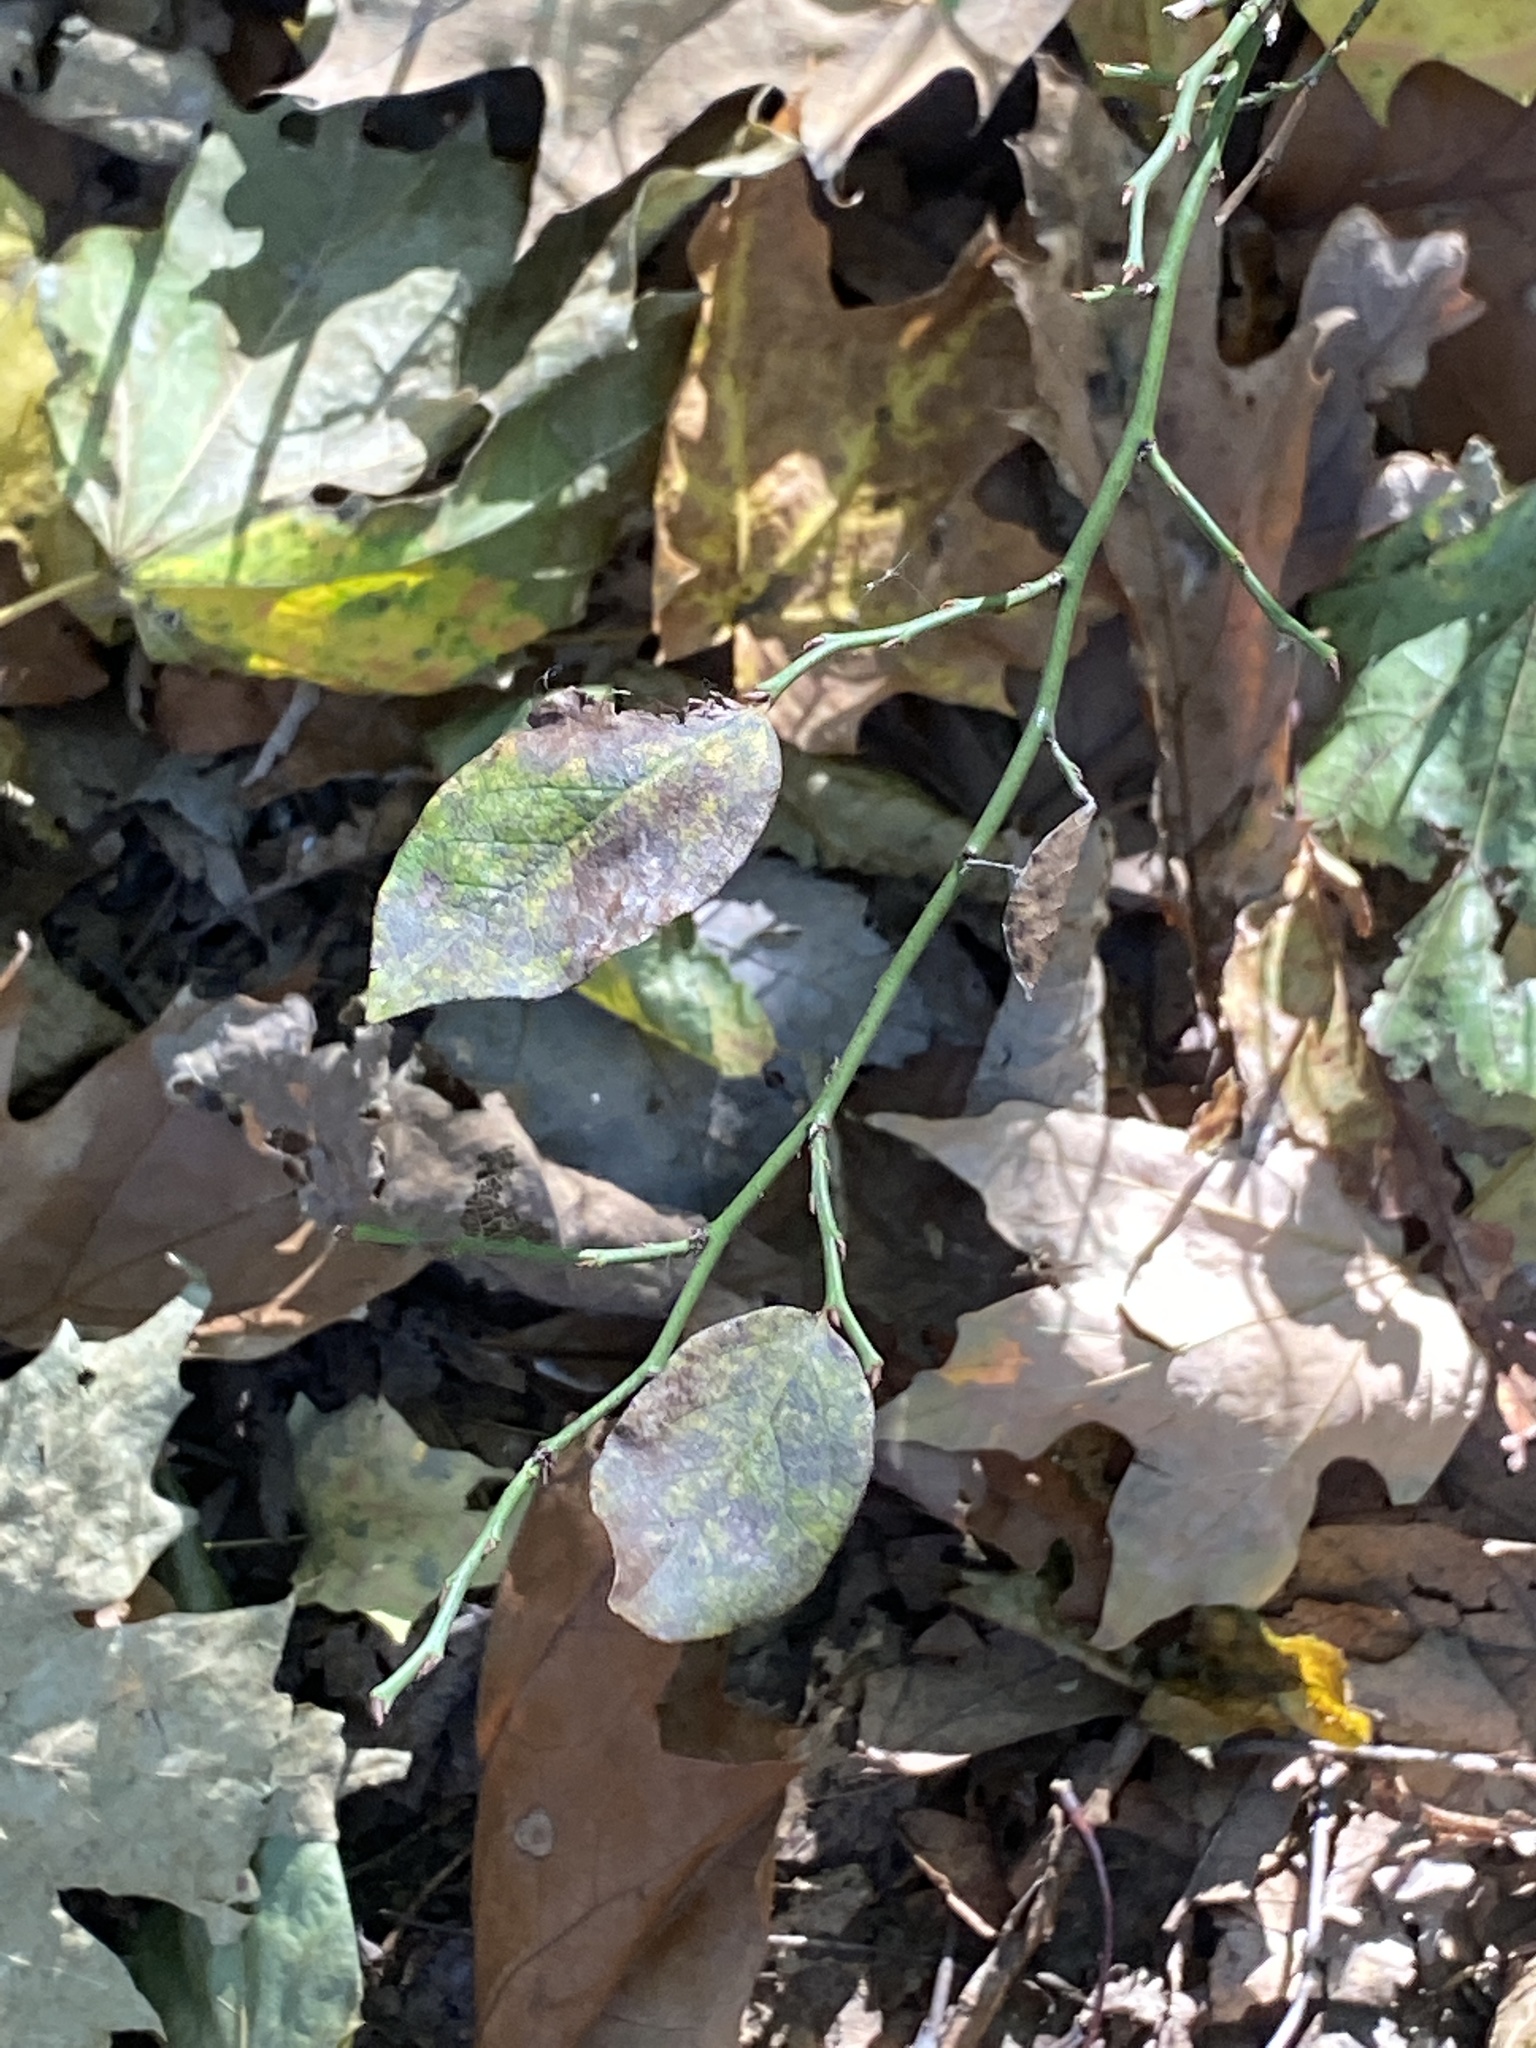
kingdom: Plantae
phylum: Tracheophyta
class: Magnoliopsida
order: Ericales
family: Ericaceae
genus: Vaccinium
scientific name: Vaccinium pallidum
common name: Blue ridge blueberry
